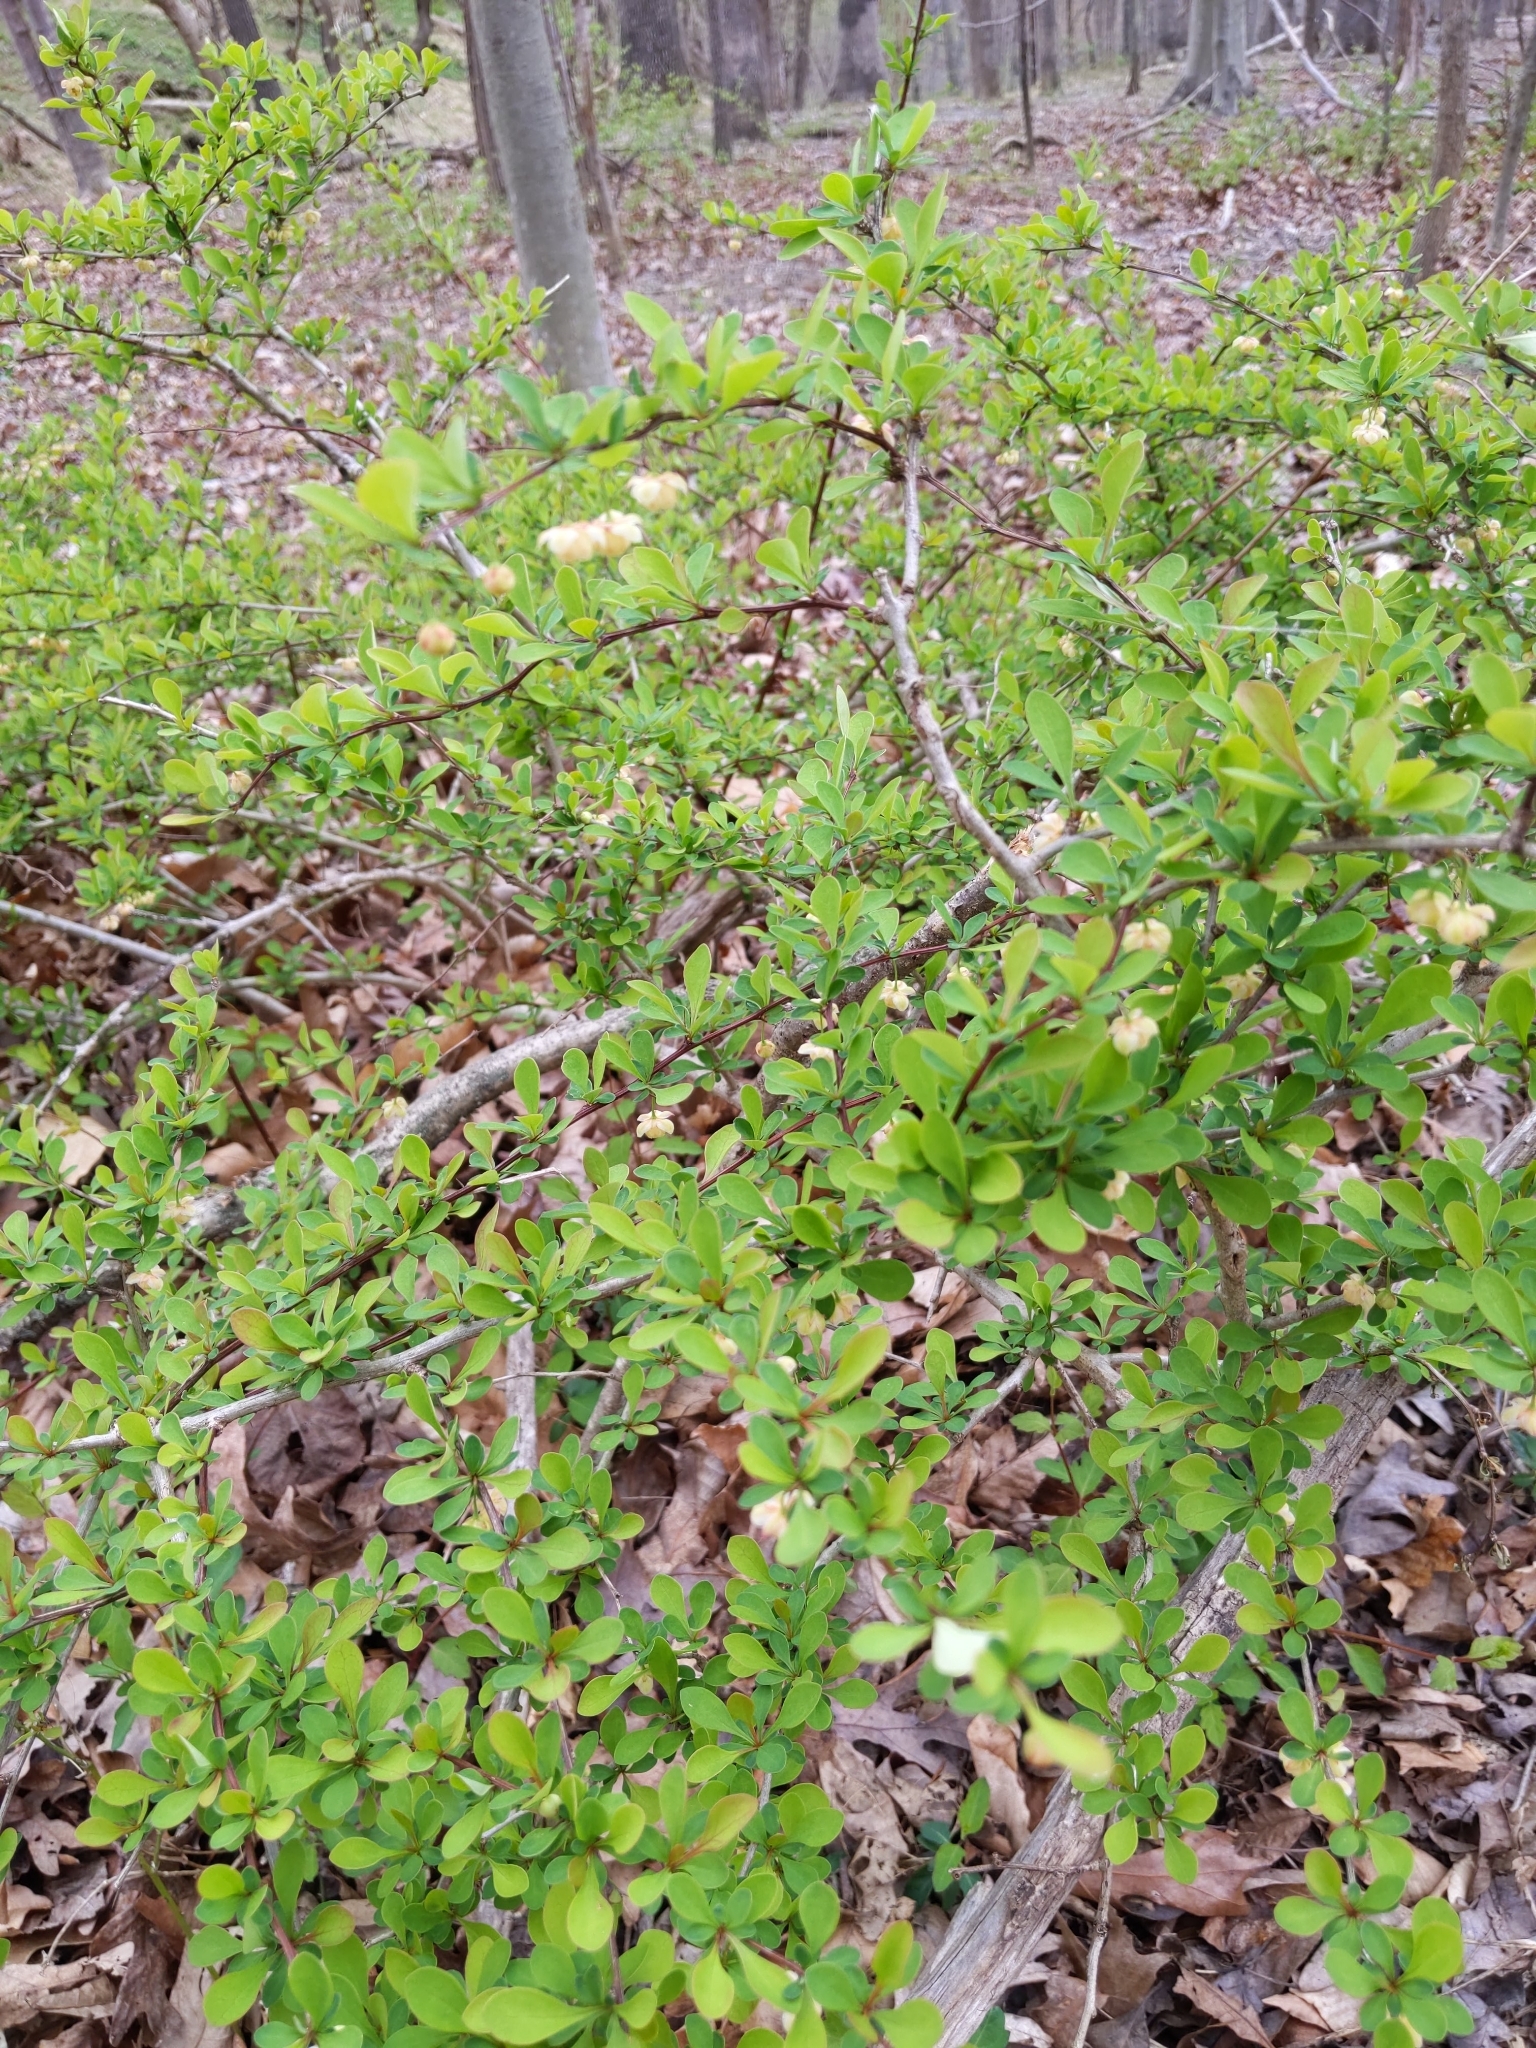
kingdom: Plantae
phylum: Tracheophyta
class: Magnoliopsida
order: Ranunculales
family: Berberidaceae
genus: Berberis
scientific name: Berberis thunbergii
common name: Japanese barberry
